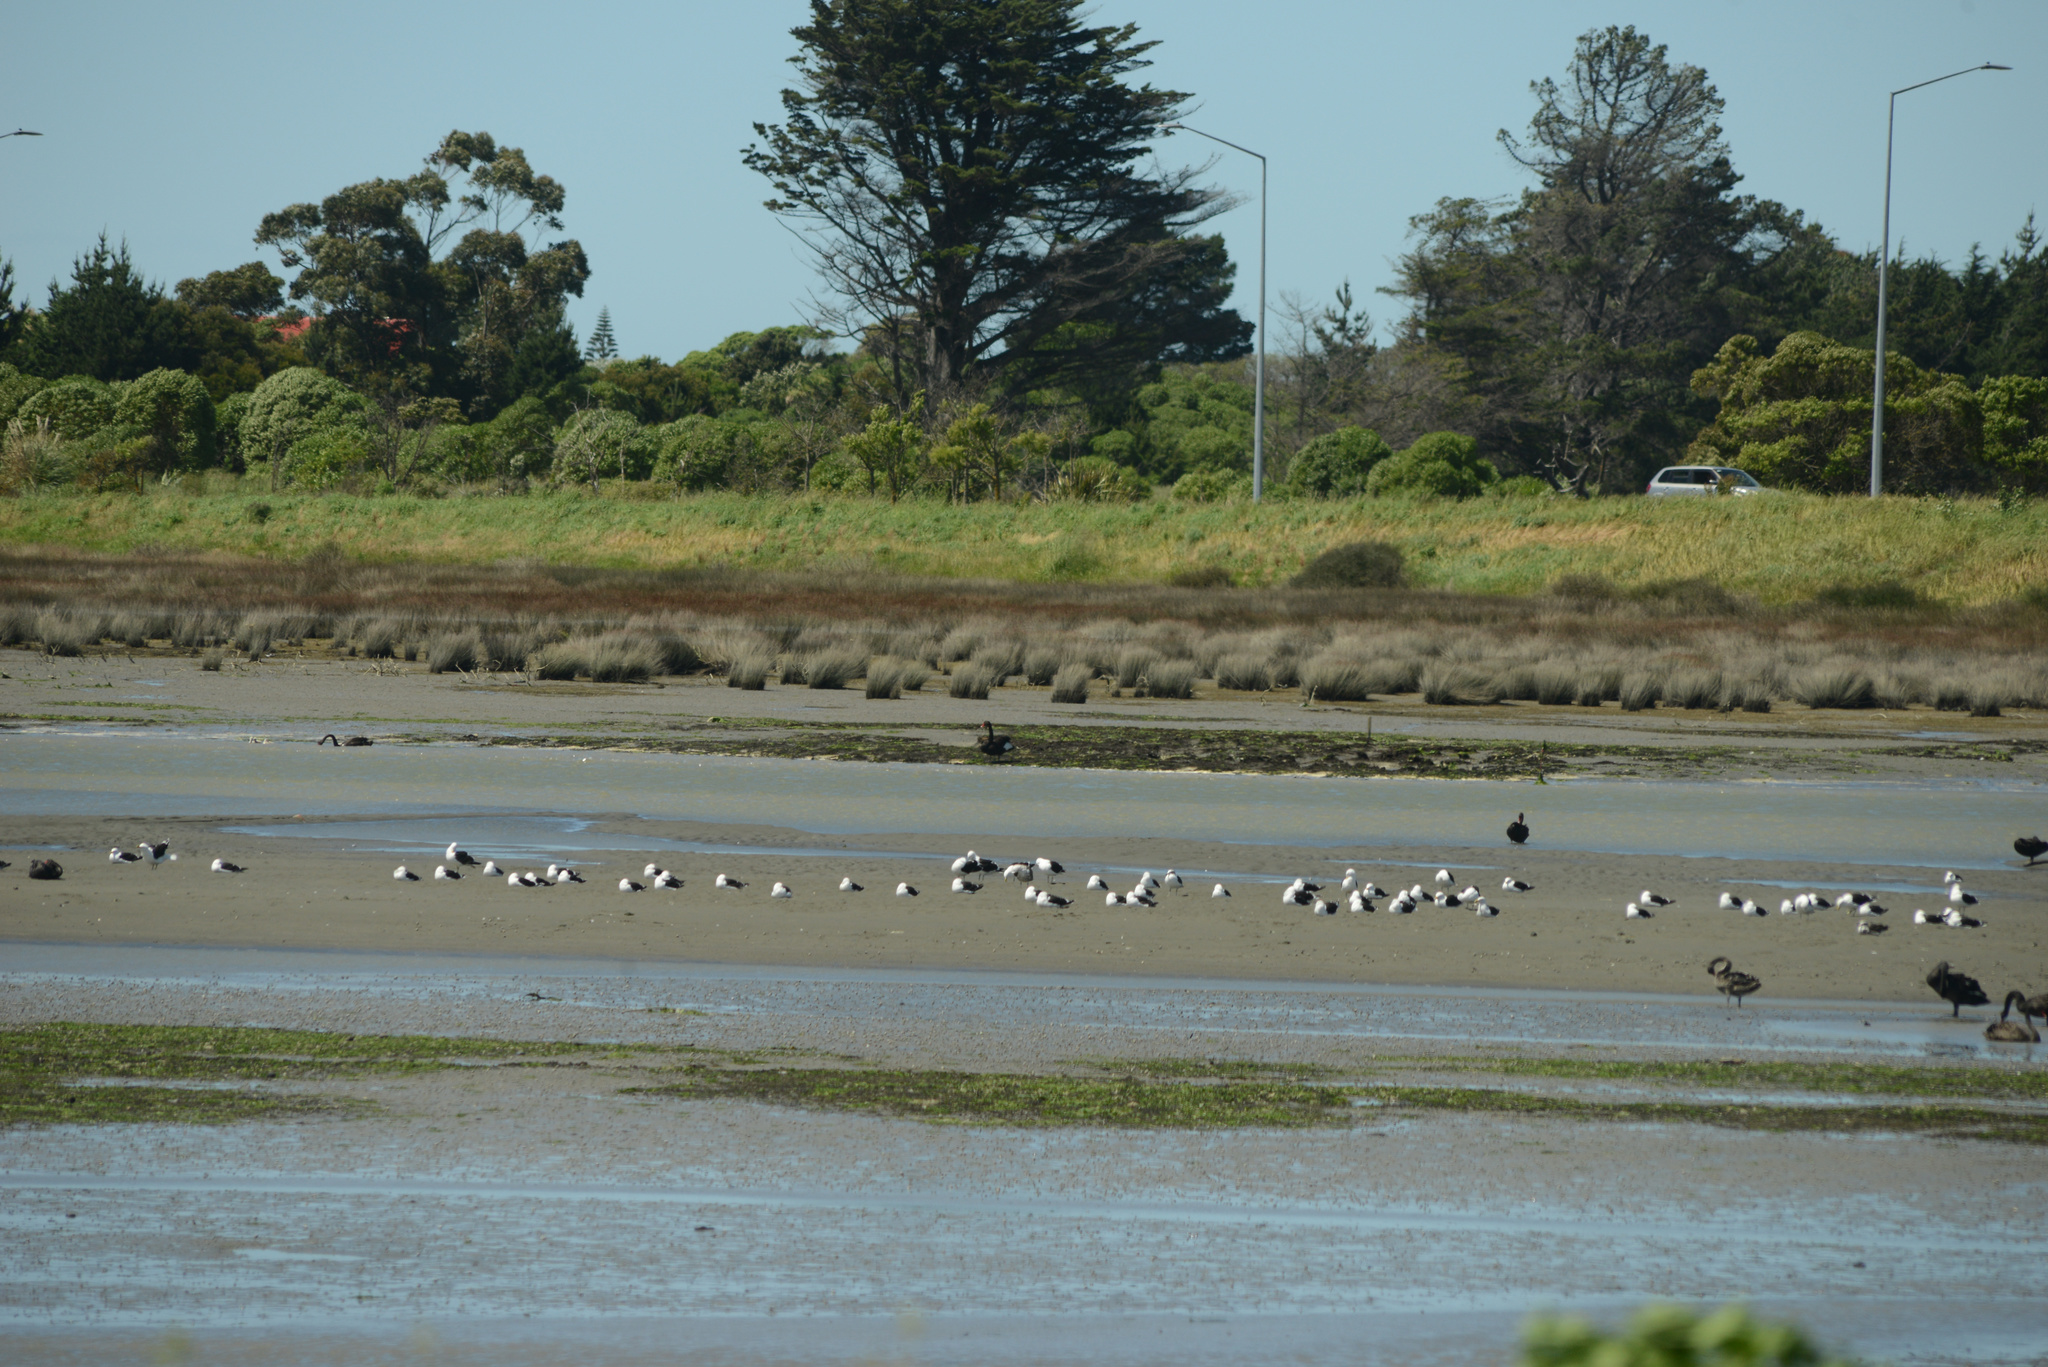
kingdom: Animalia
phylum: Chordata
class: Aves
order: Charadriiformes
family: Laridae
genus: Larus
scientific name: Larus dominicanus
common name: Kelp gull
